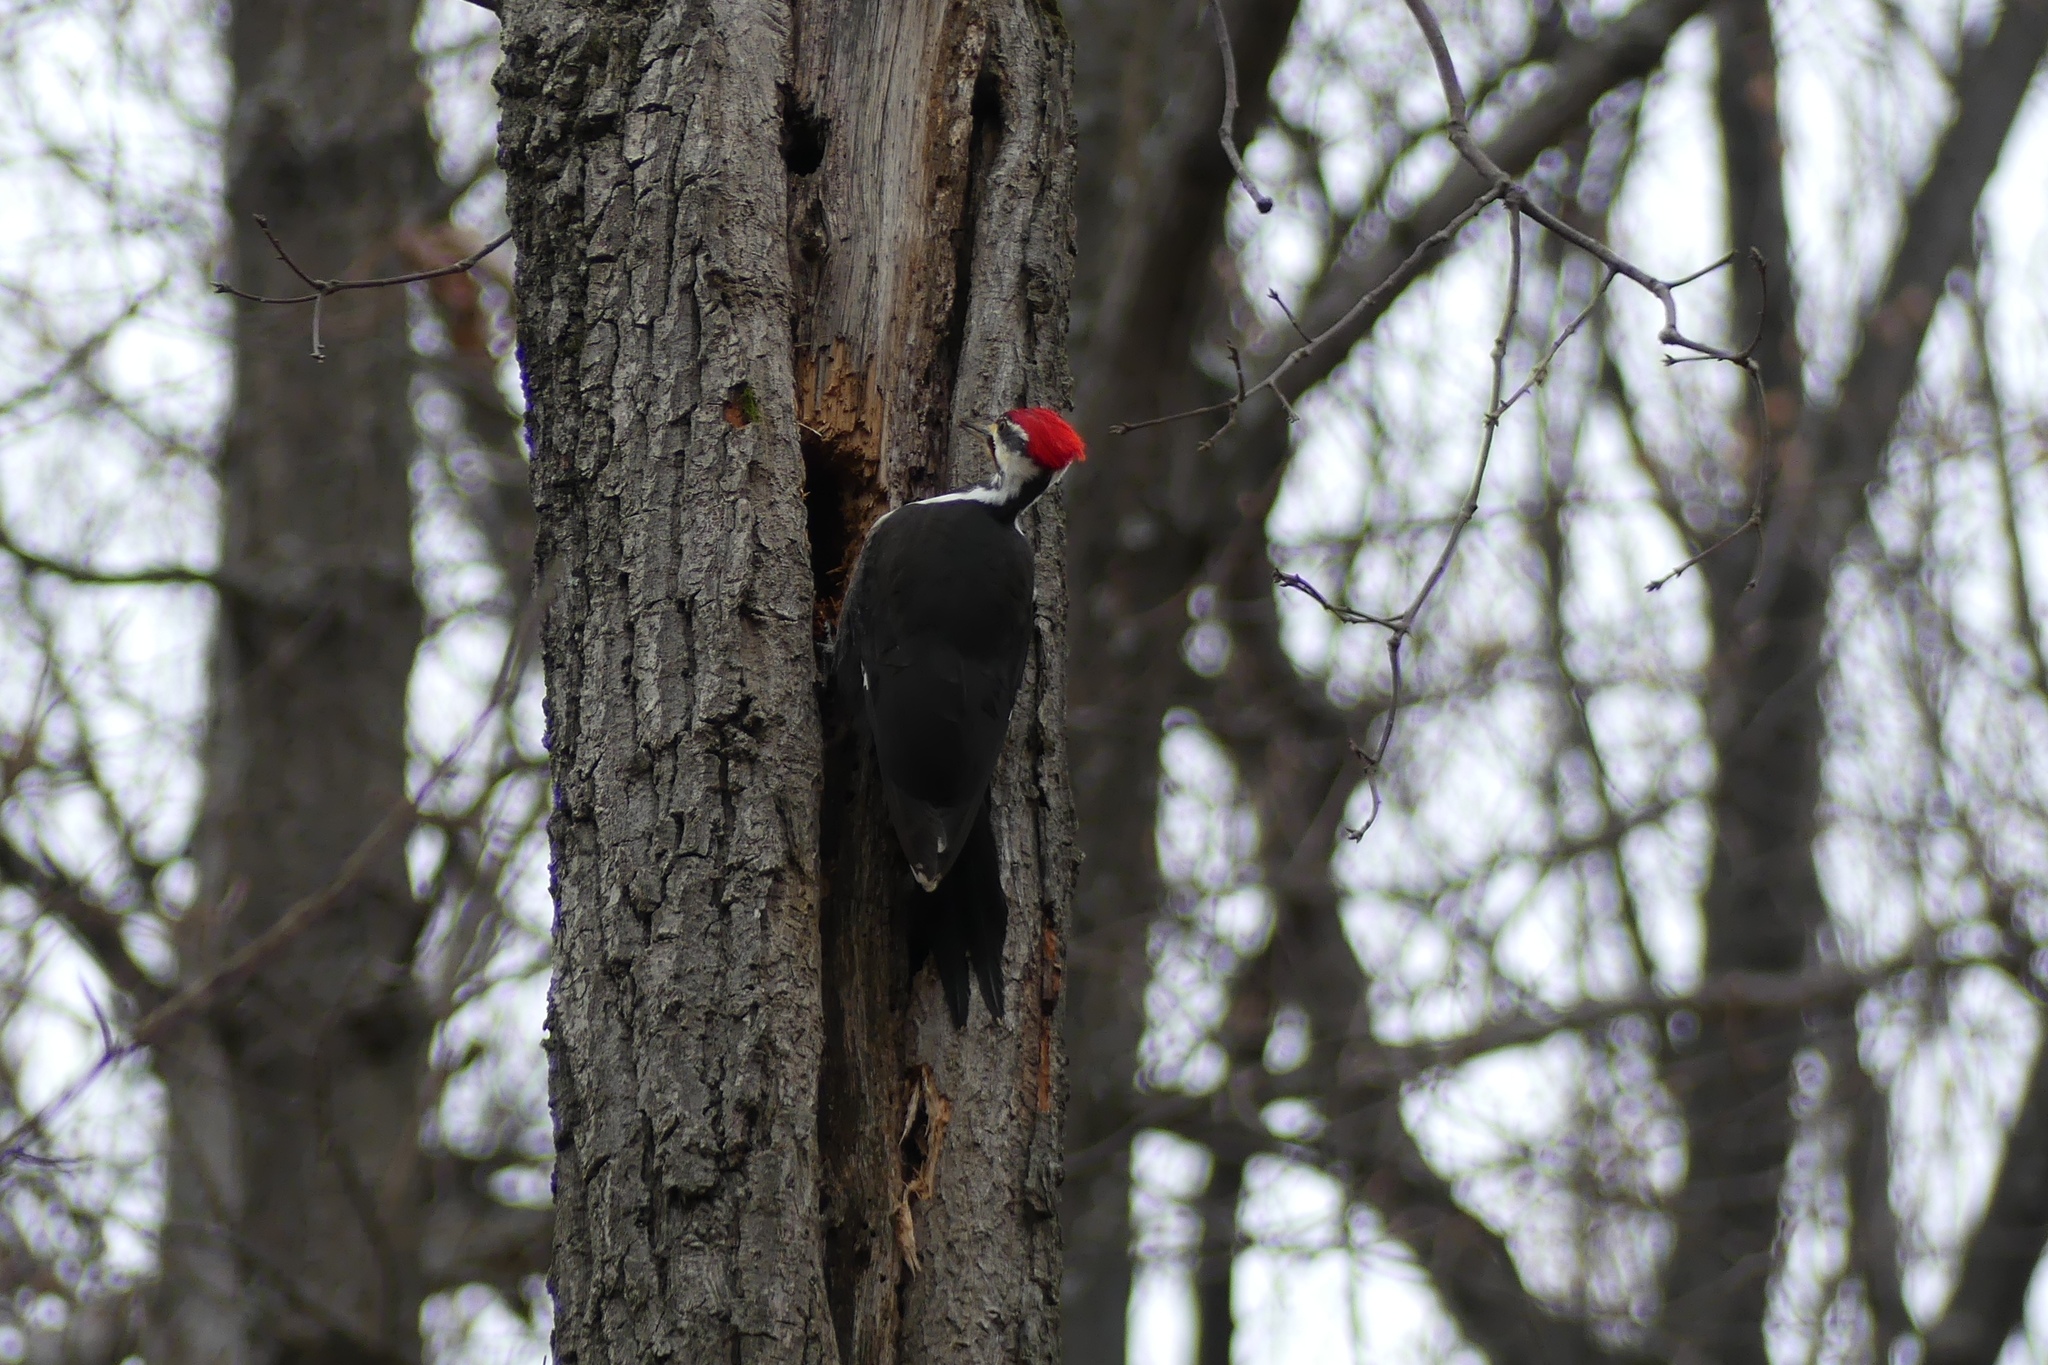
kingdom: Animalia
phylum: Chordata
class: Aves
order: Piciformes
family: Picidae
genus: Dryocopus
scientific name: Dryocopus pileatus
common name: Pileated woodpecker
